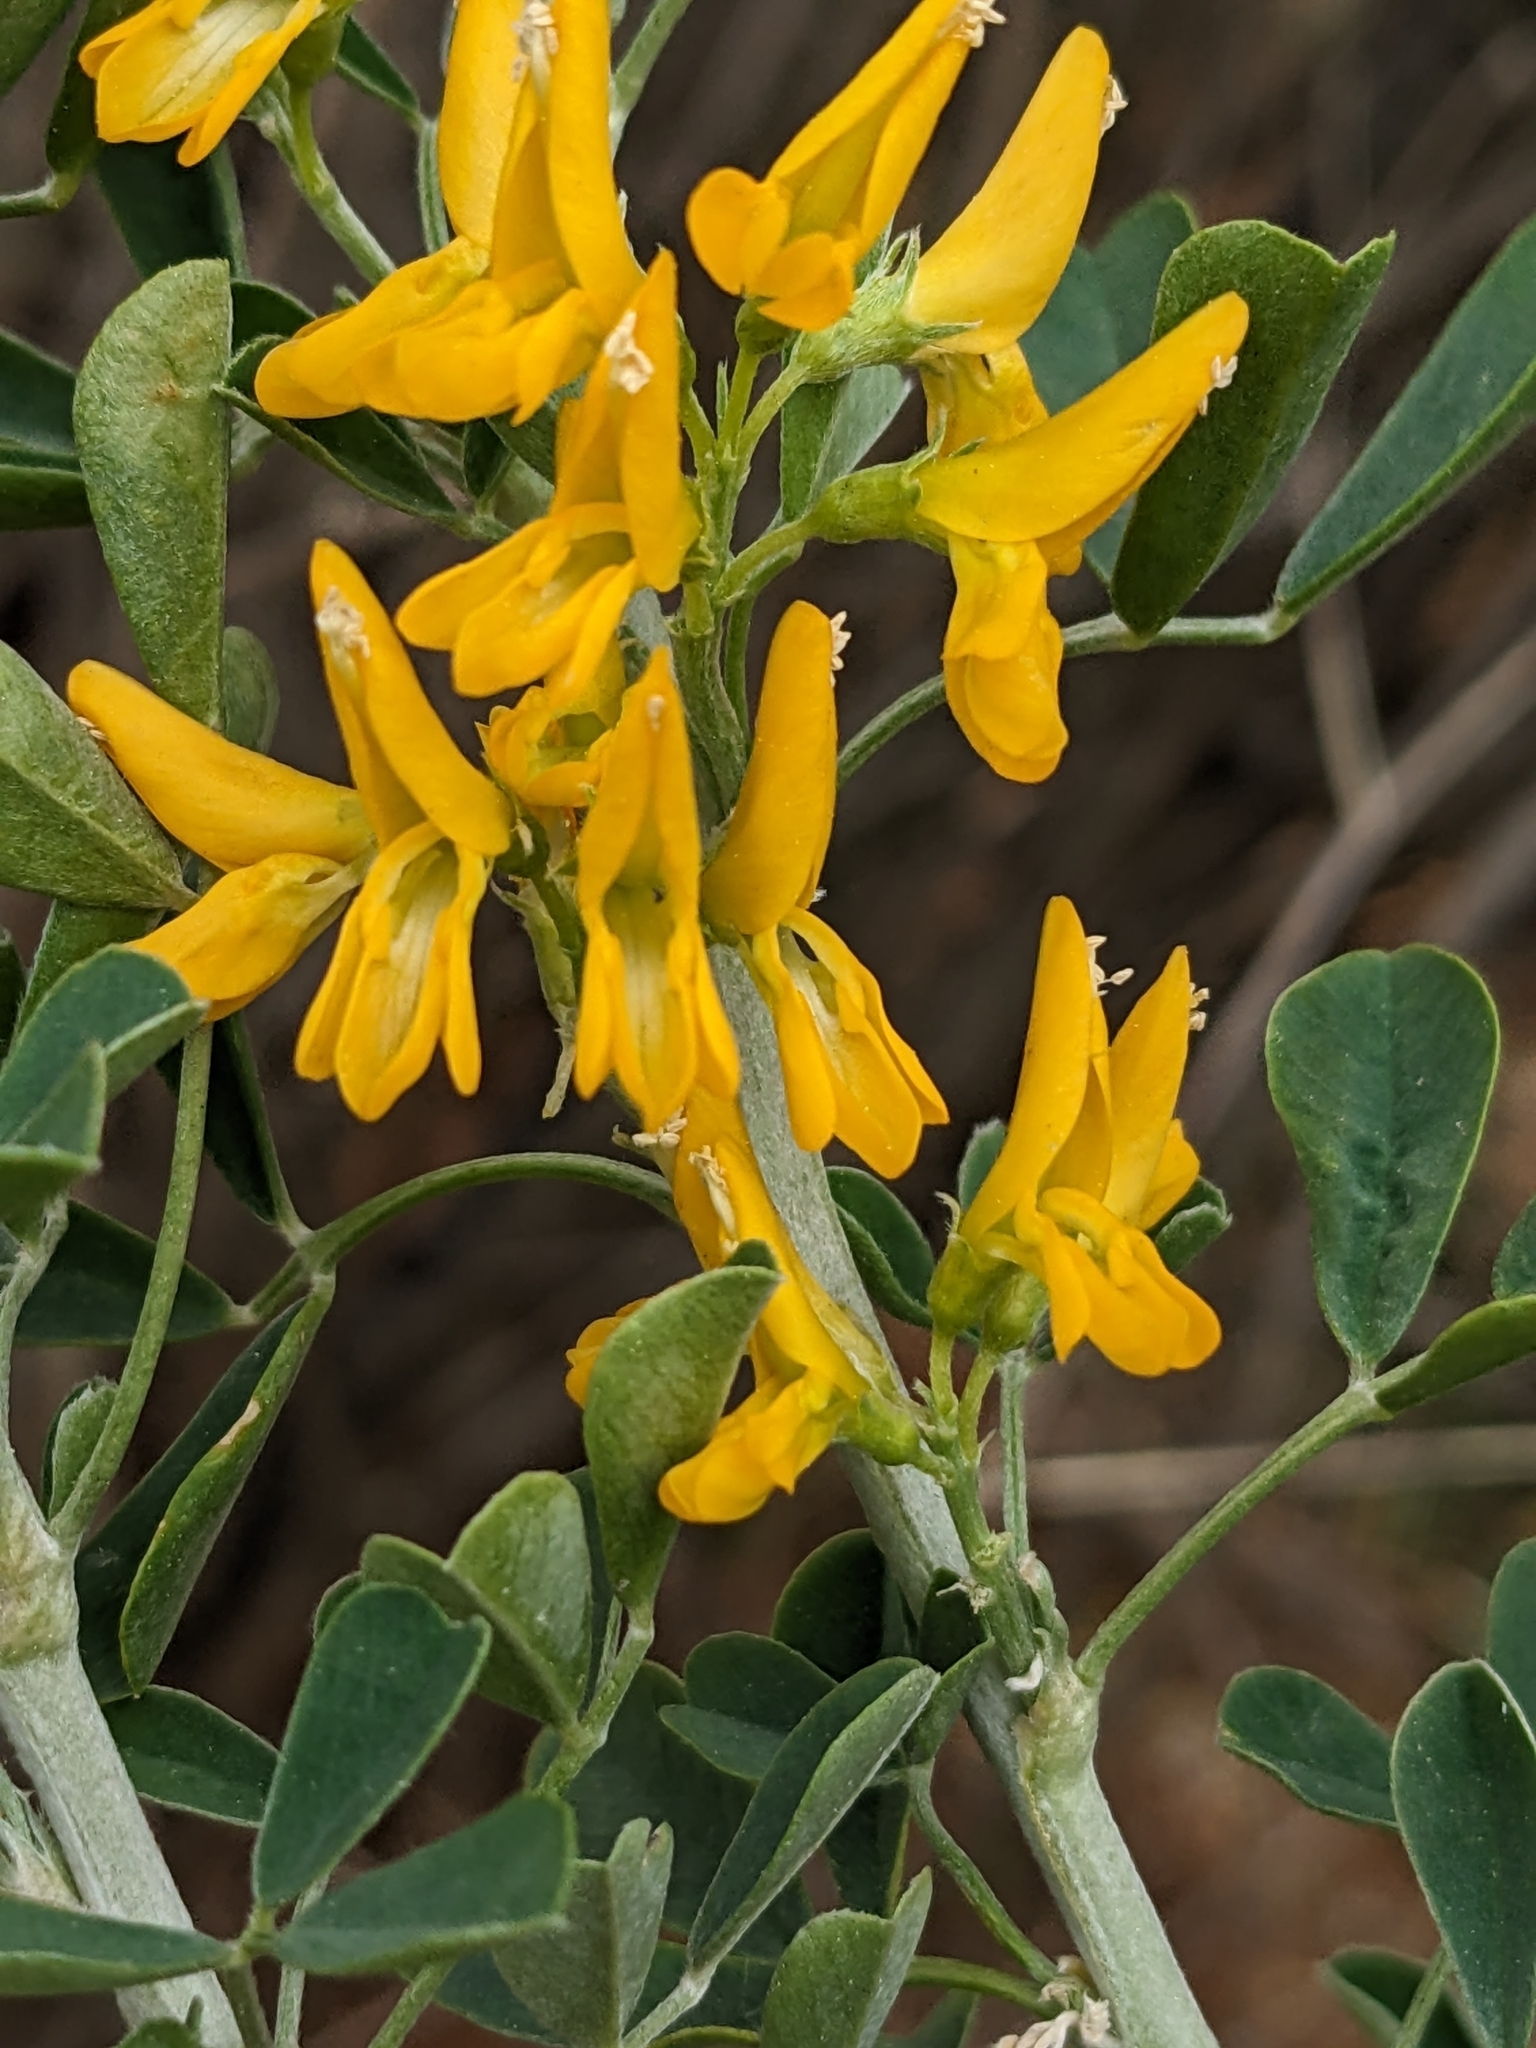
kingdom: Plantae
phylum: Tracheophyta
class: Magnoliopsida
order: Fabales
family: Fabaceae
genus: Medicago
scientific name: Medicago arborea
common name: Moon trefoil
